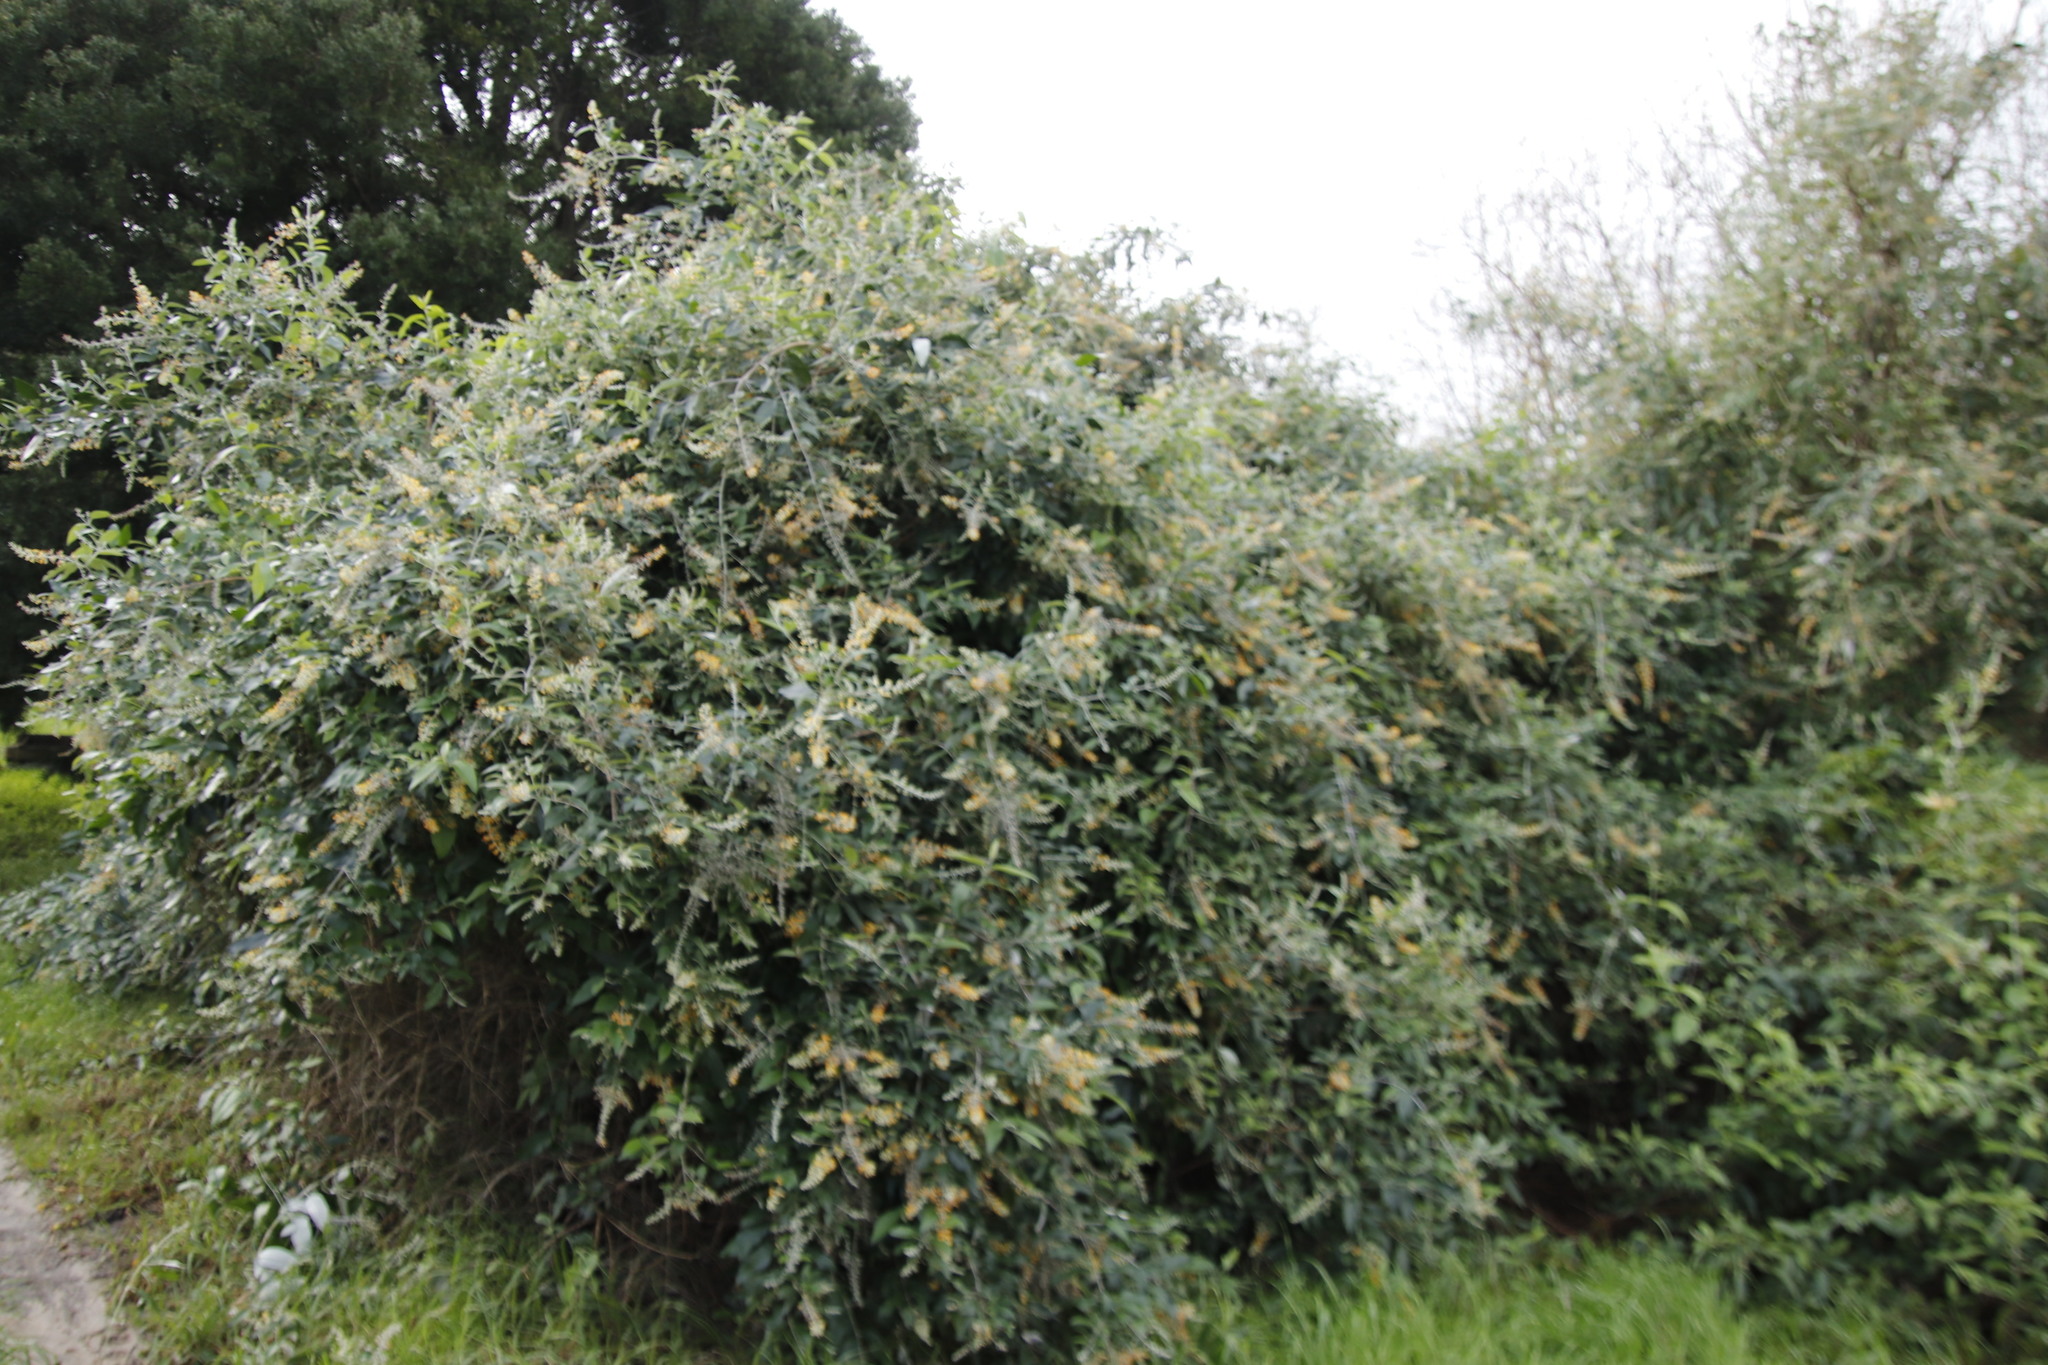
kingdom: Plantae
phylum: Tracheophyta
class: Magnoliopsida
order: Lamiales
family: Scrophulariaceae
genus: Buddleja
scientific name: Buddleja madagascariensis
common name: Smokebush
